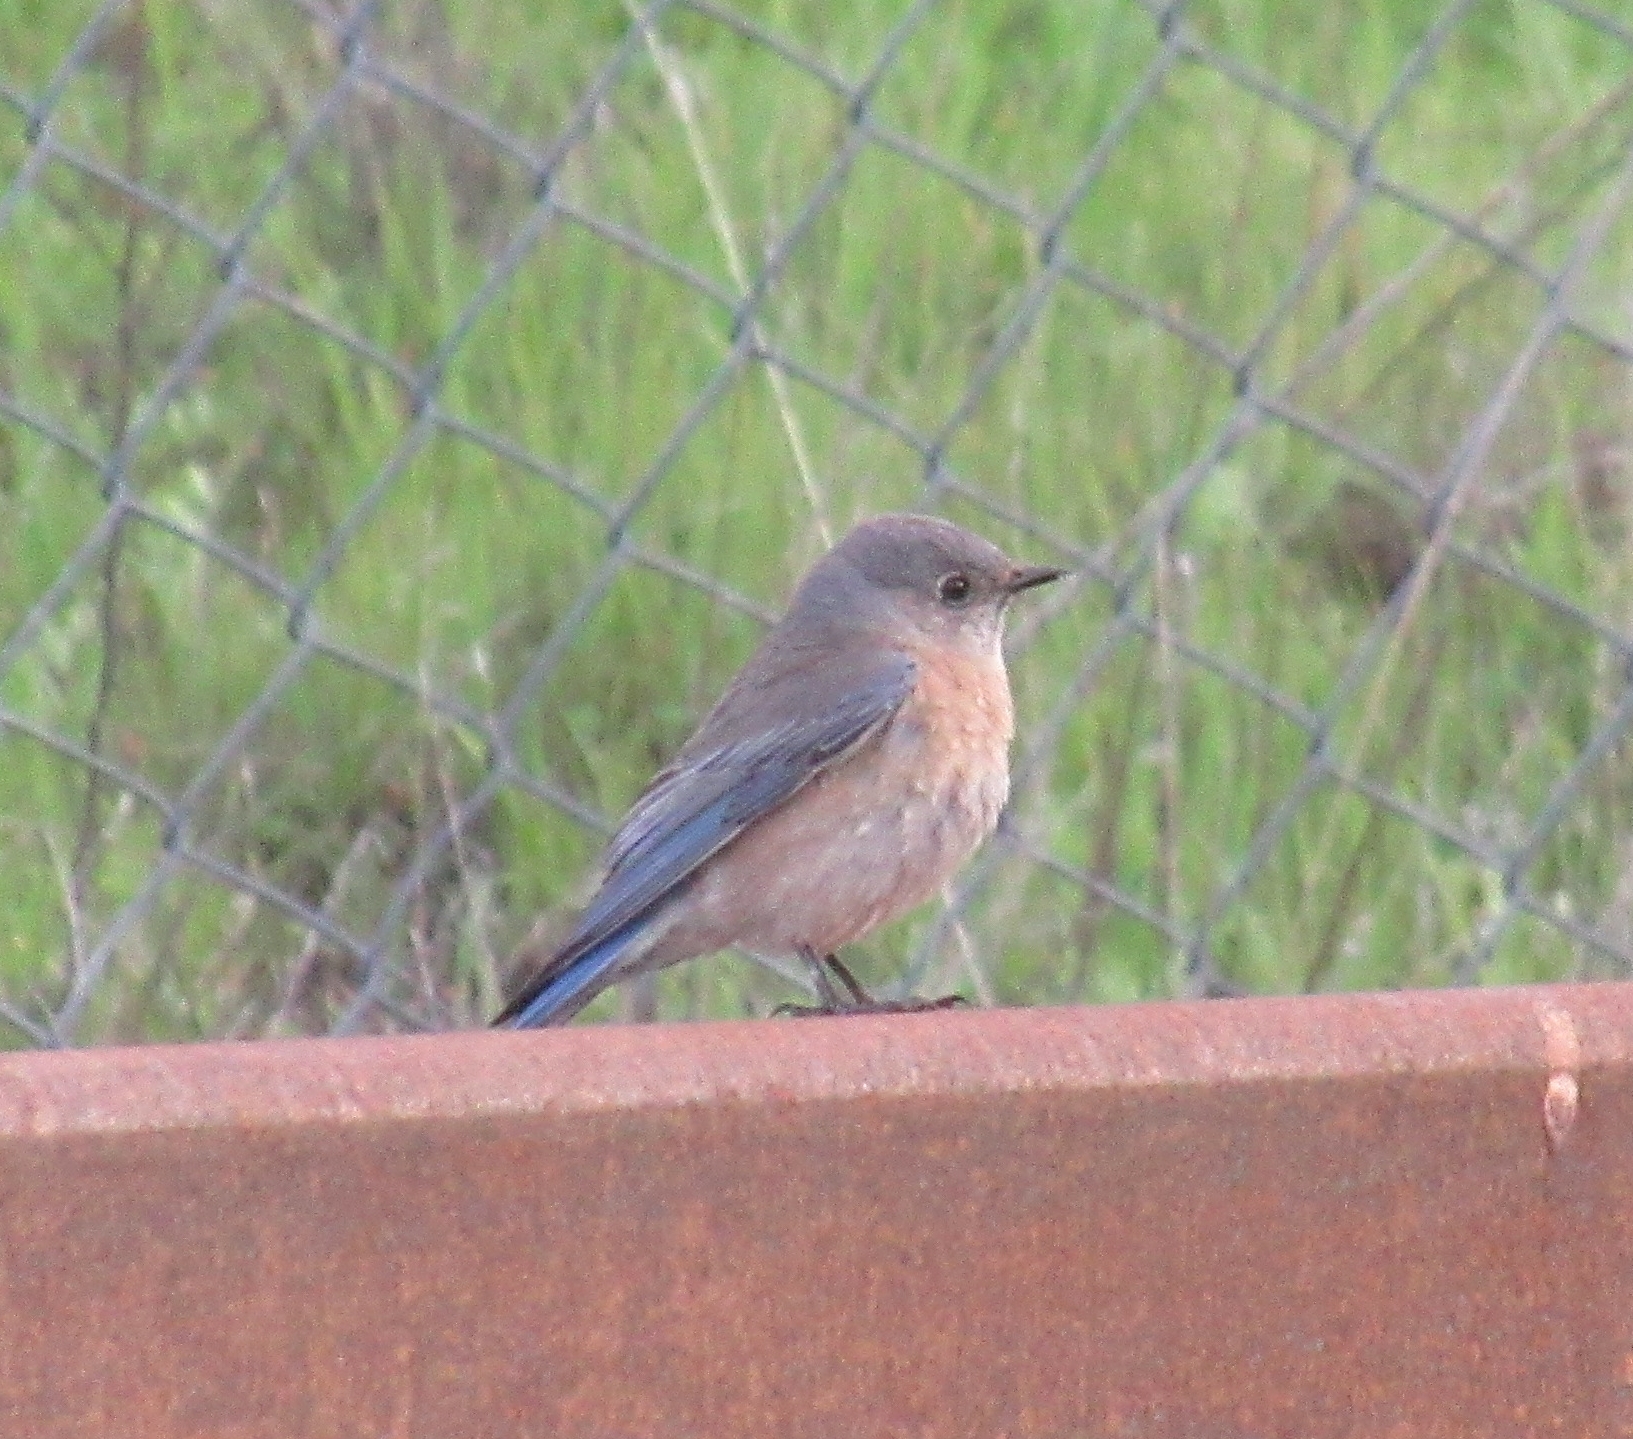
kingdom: Animalia
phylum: Chordata
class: Aves
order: Passeriformes
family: Turdidae
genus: Sialia
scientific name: Sialia mexicana
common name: Western bluebird
